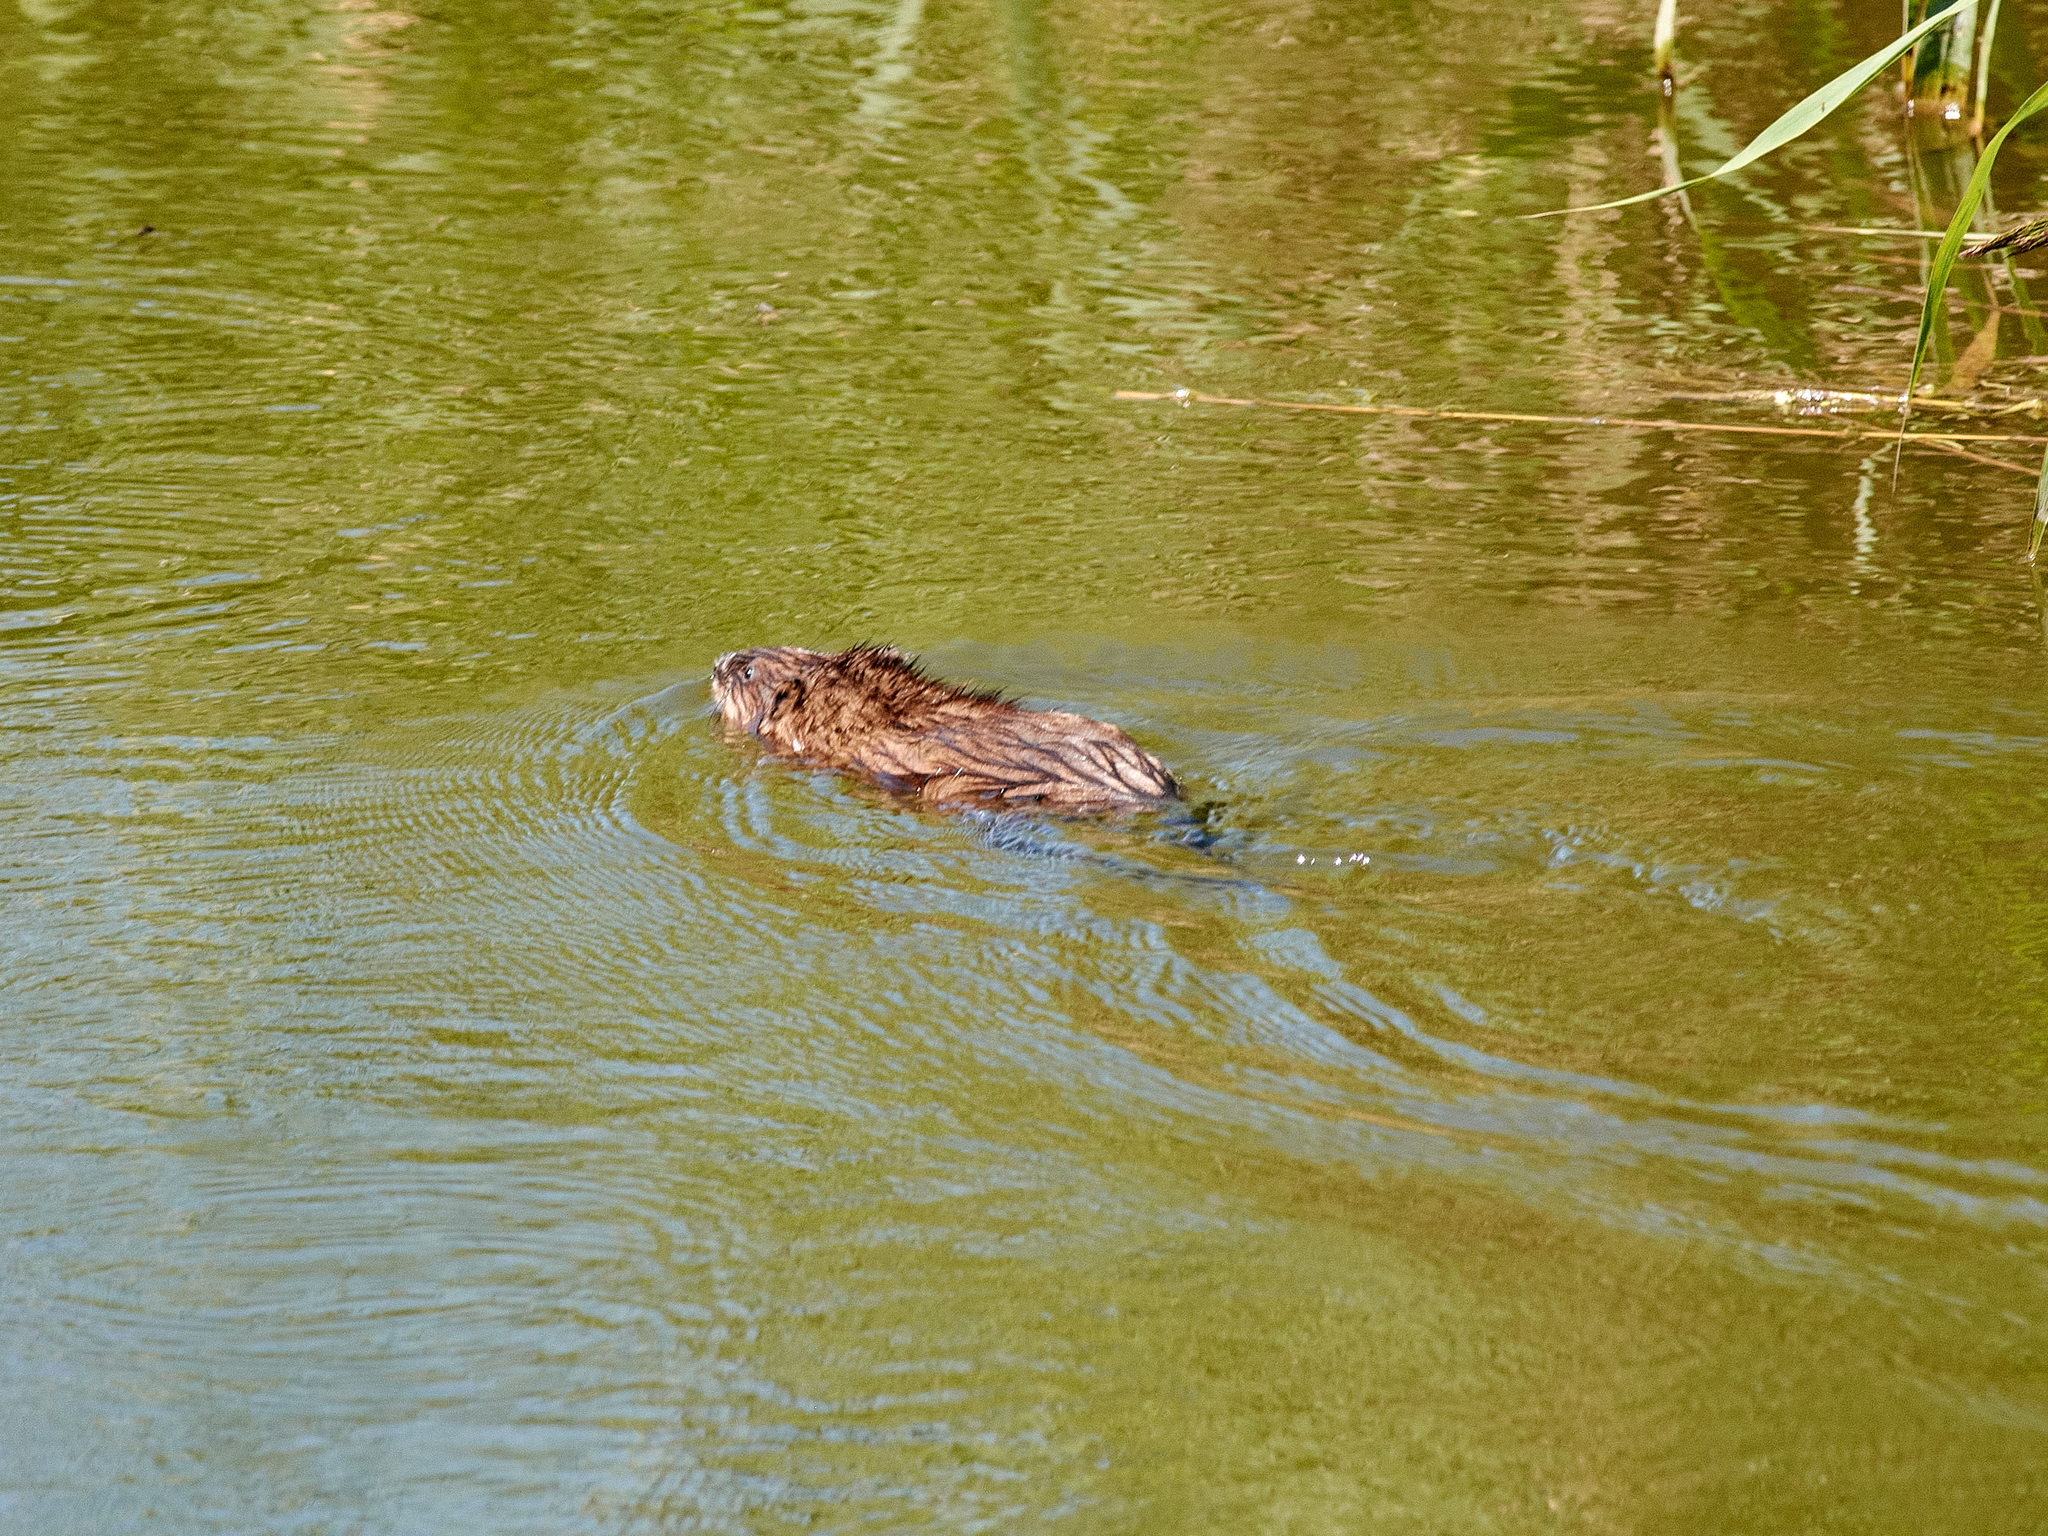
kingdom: Animalia
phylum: Chordata
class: Mammalia
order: Rodentia
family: Cricetidae
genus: Ondatra
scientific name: Ondatra zibethicus
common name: Muskrat
